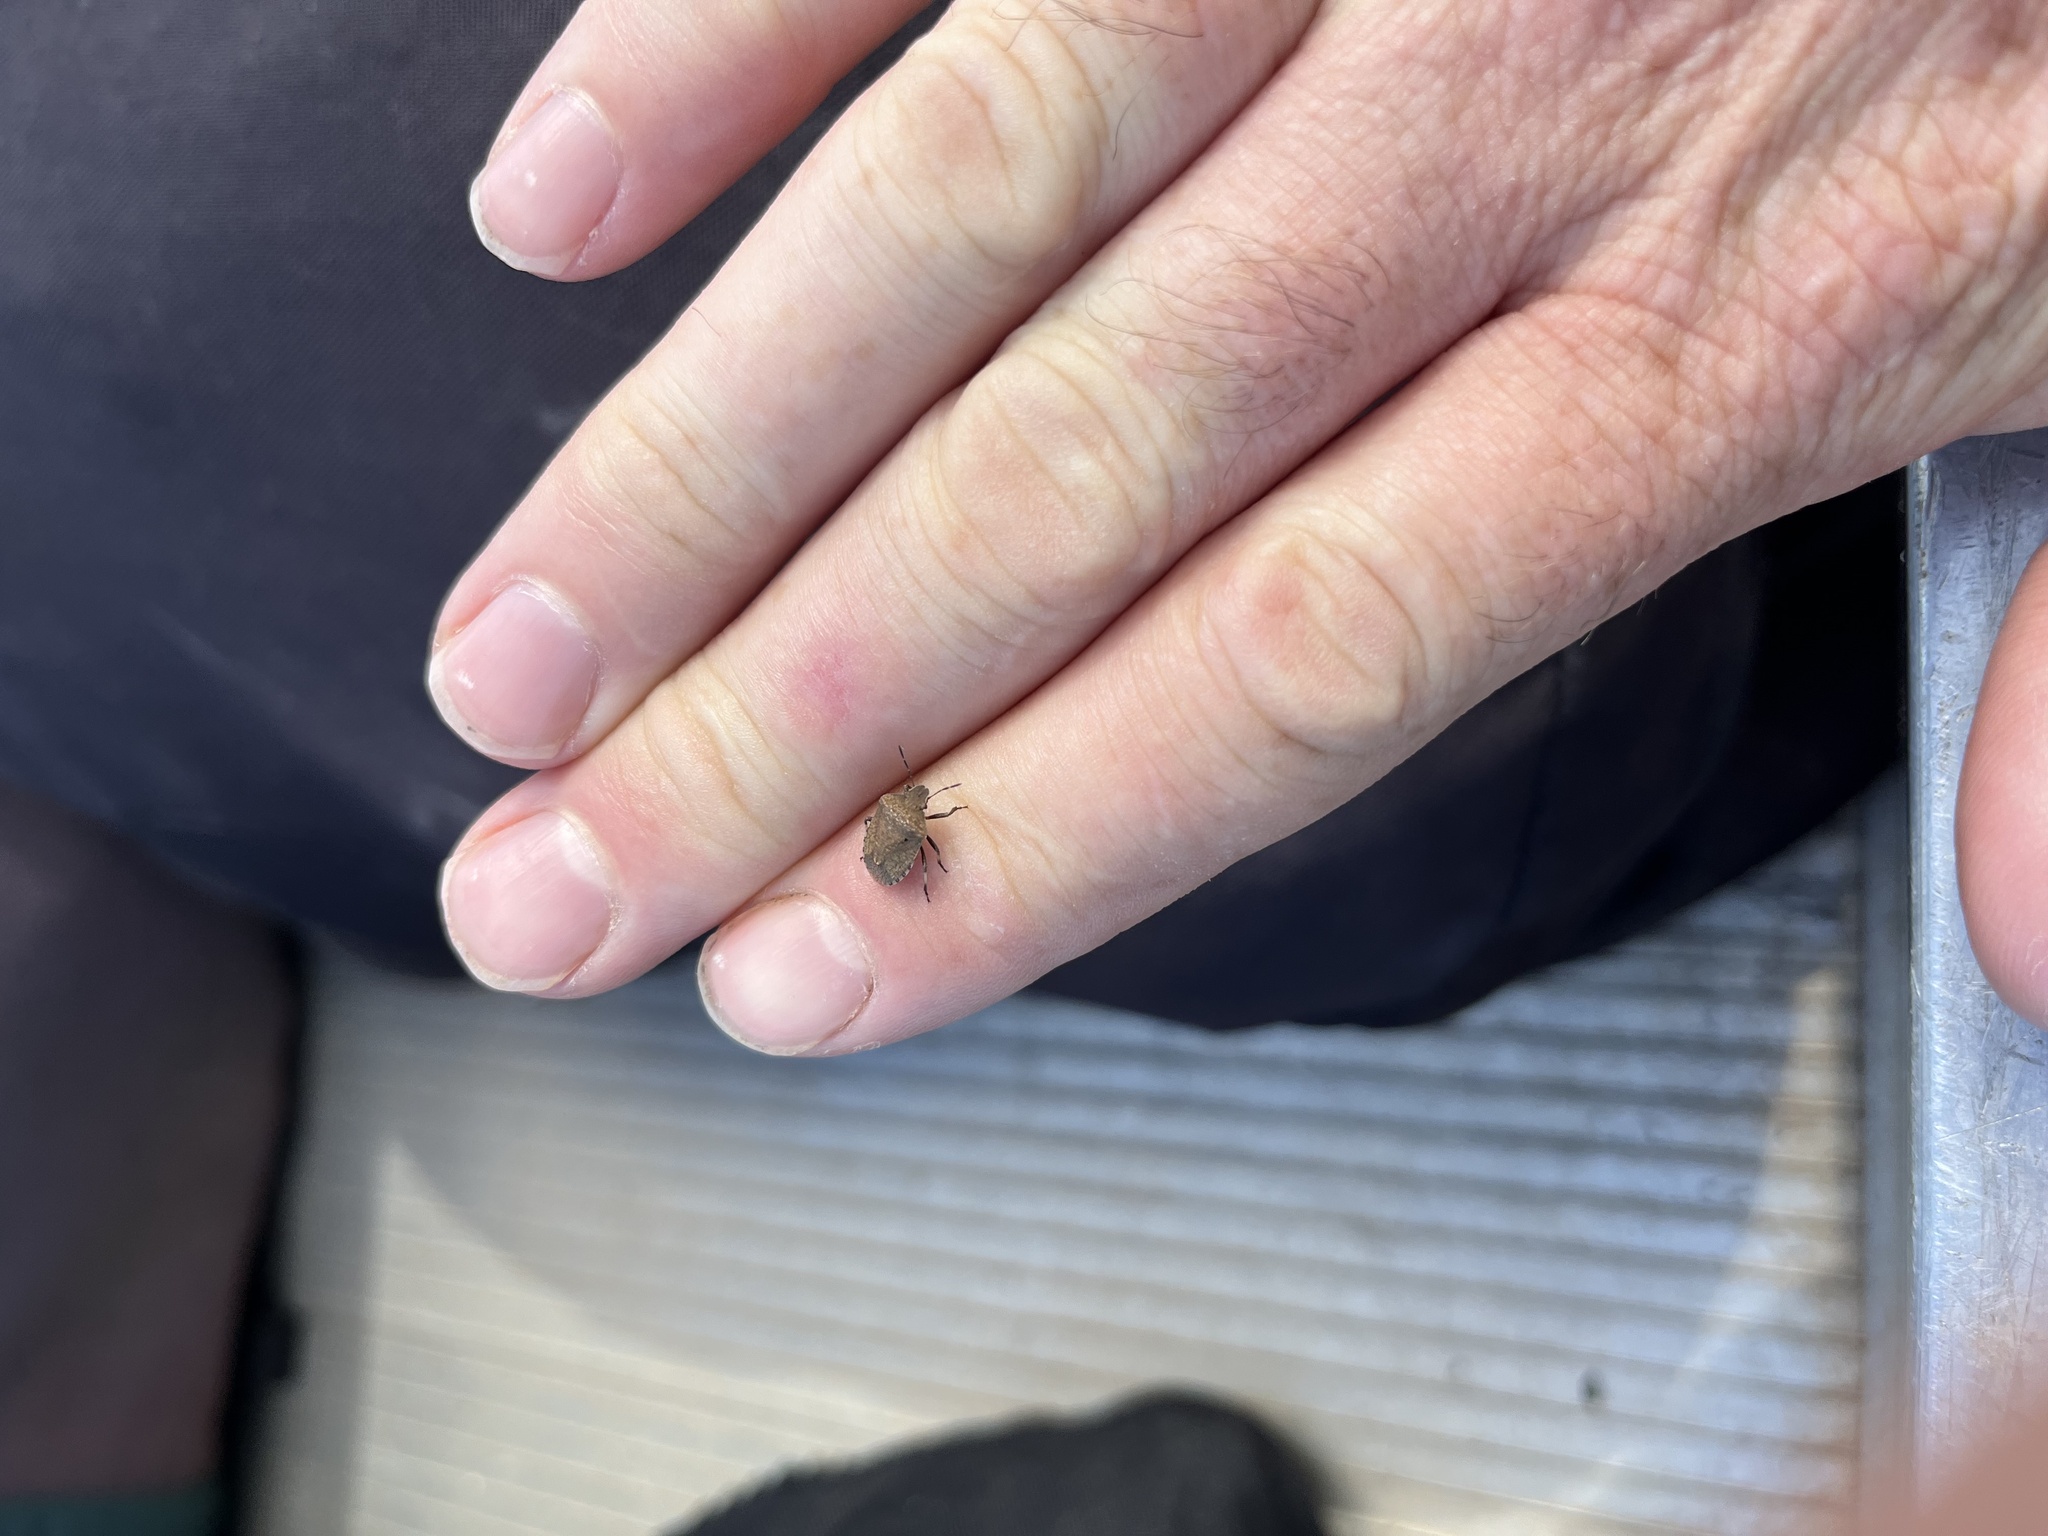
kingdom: Animalia
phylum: Arthropoda
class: Insecta
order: Hemiptera
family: Pentatomidae
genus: Dictyotus
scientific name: Dictyotus caenosus
